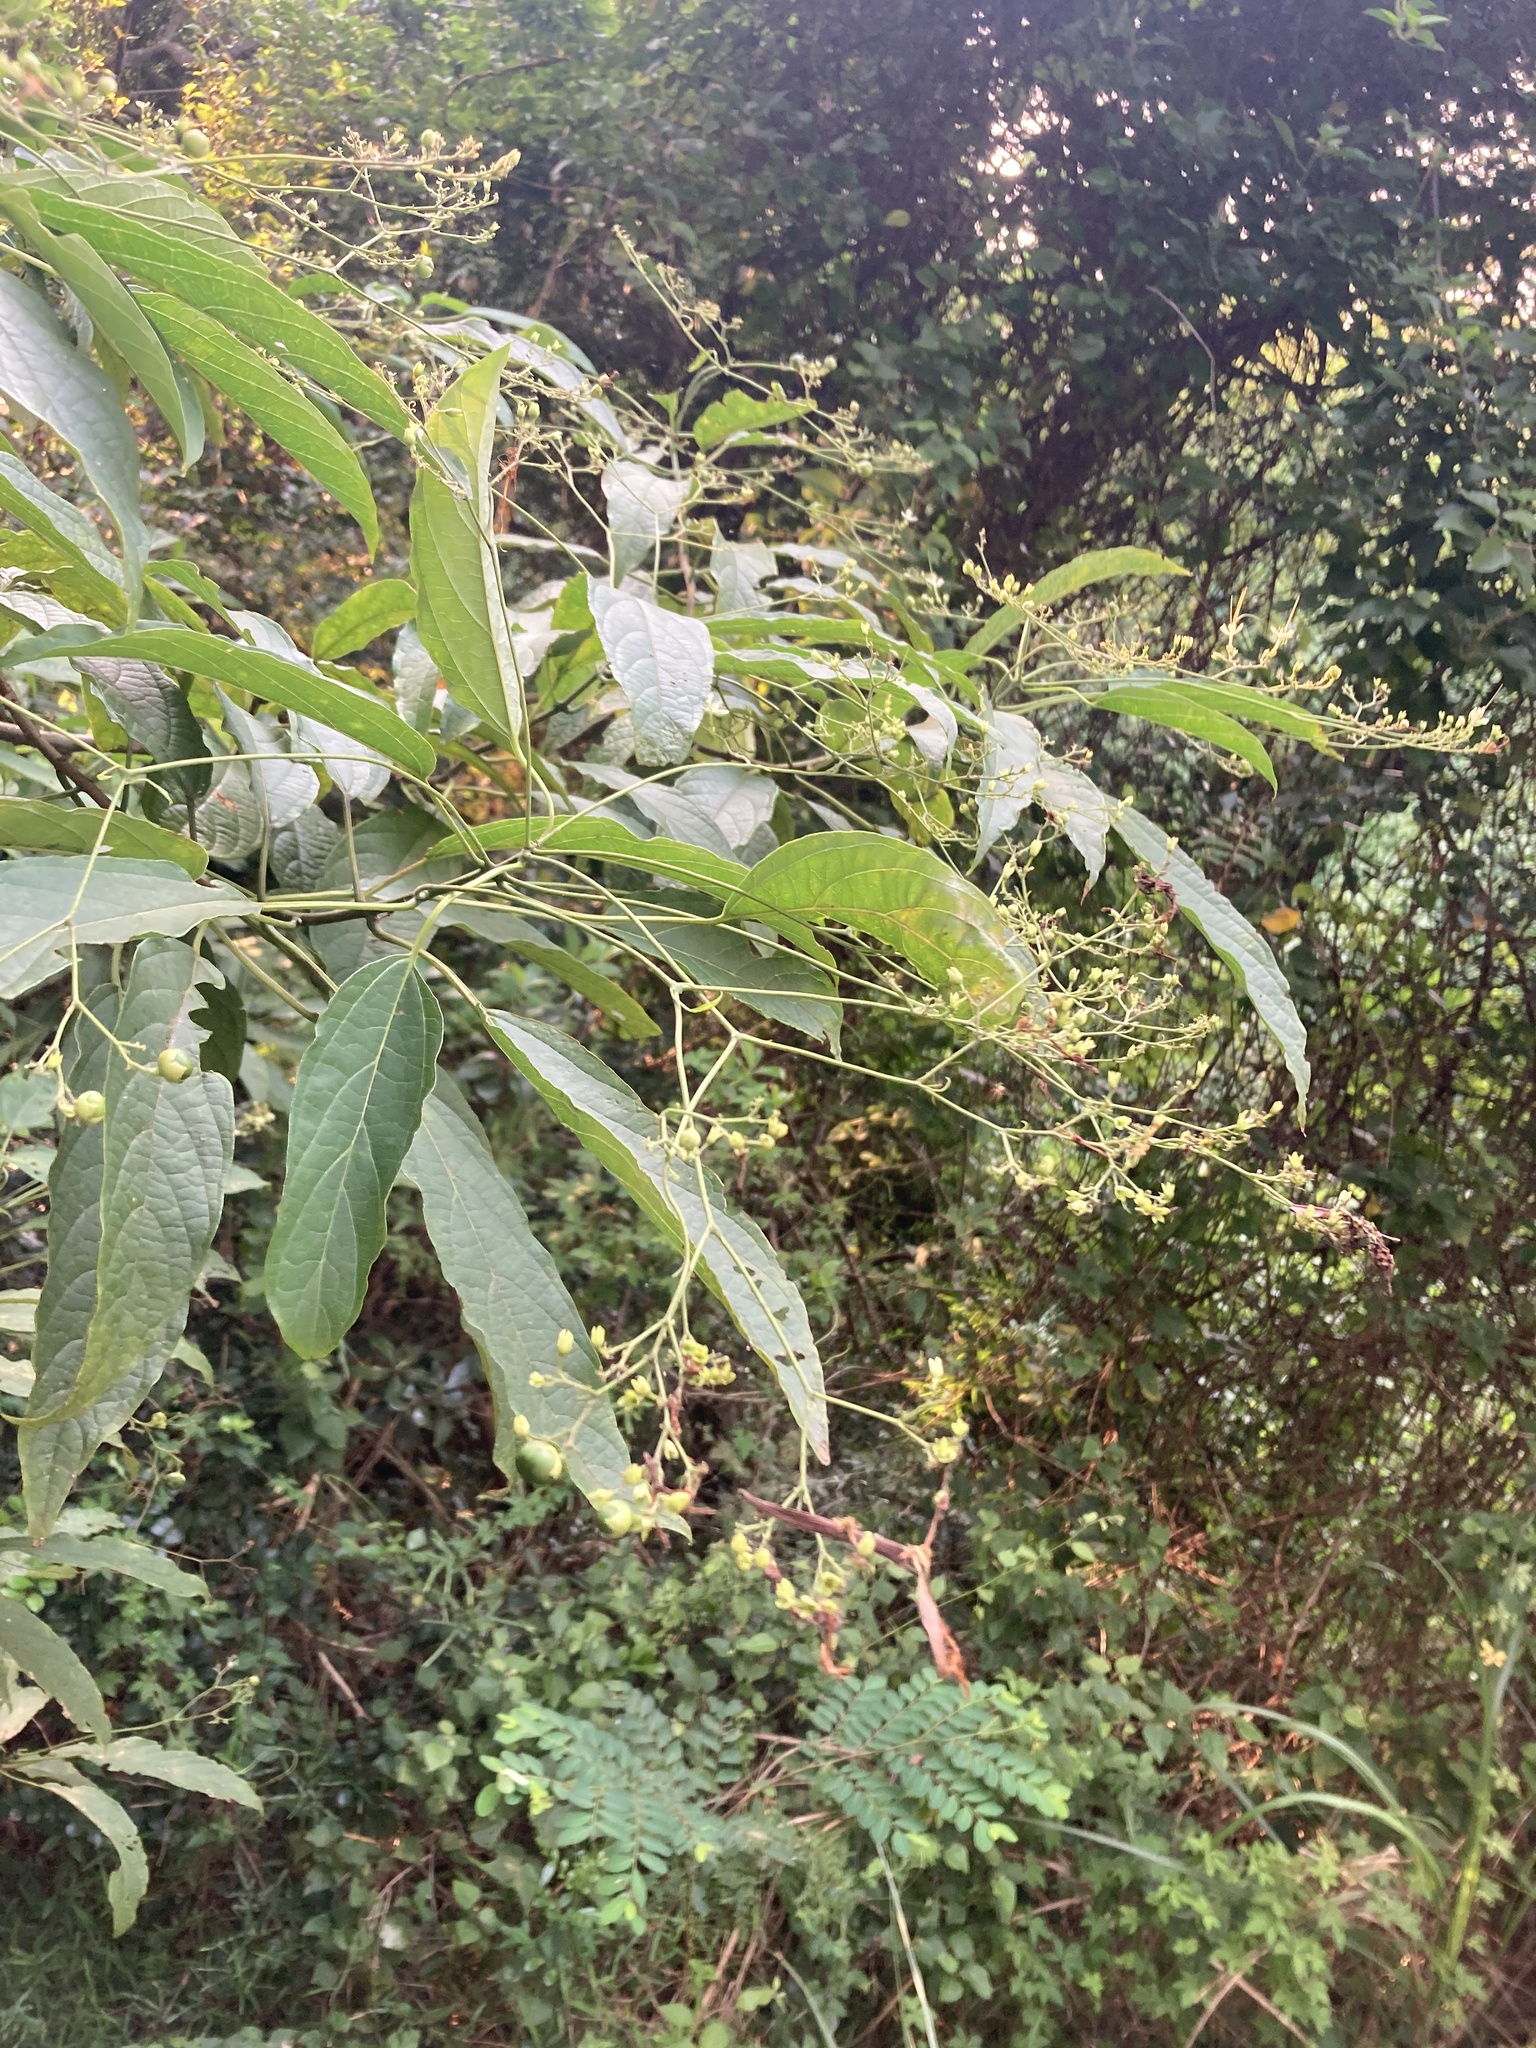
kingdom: Plantae
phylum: Tracheophyta
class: Magnoliopsida
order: Lamiales
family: Lamiaceae
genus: Clerodendrum
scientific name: Clerodendrum cyrtophyllum
